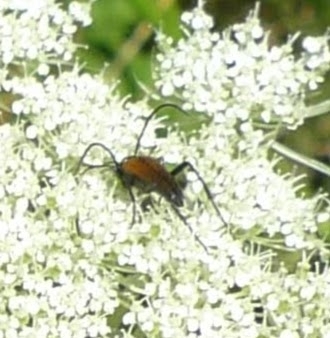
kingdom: Animalia
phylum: Arthropoda
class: Insecta
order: Coleoptera
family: Cerambycidae
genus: Stenurella
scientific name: Stenurella melanura
